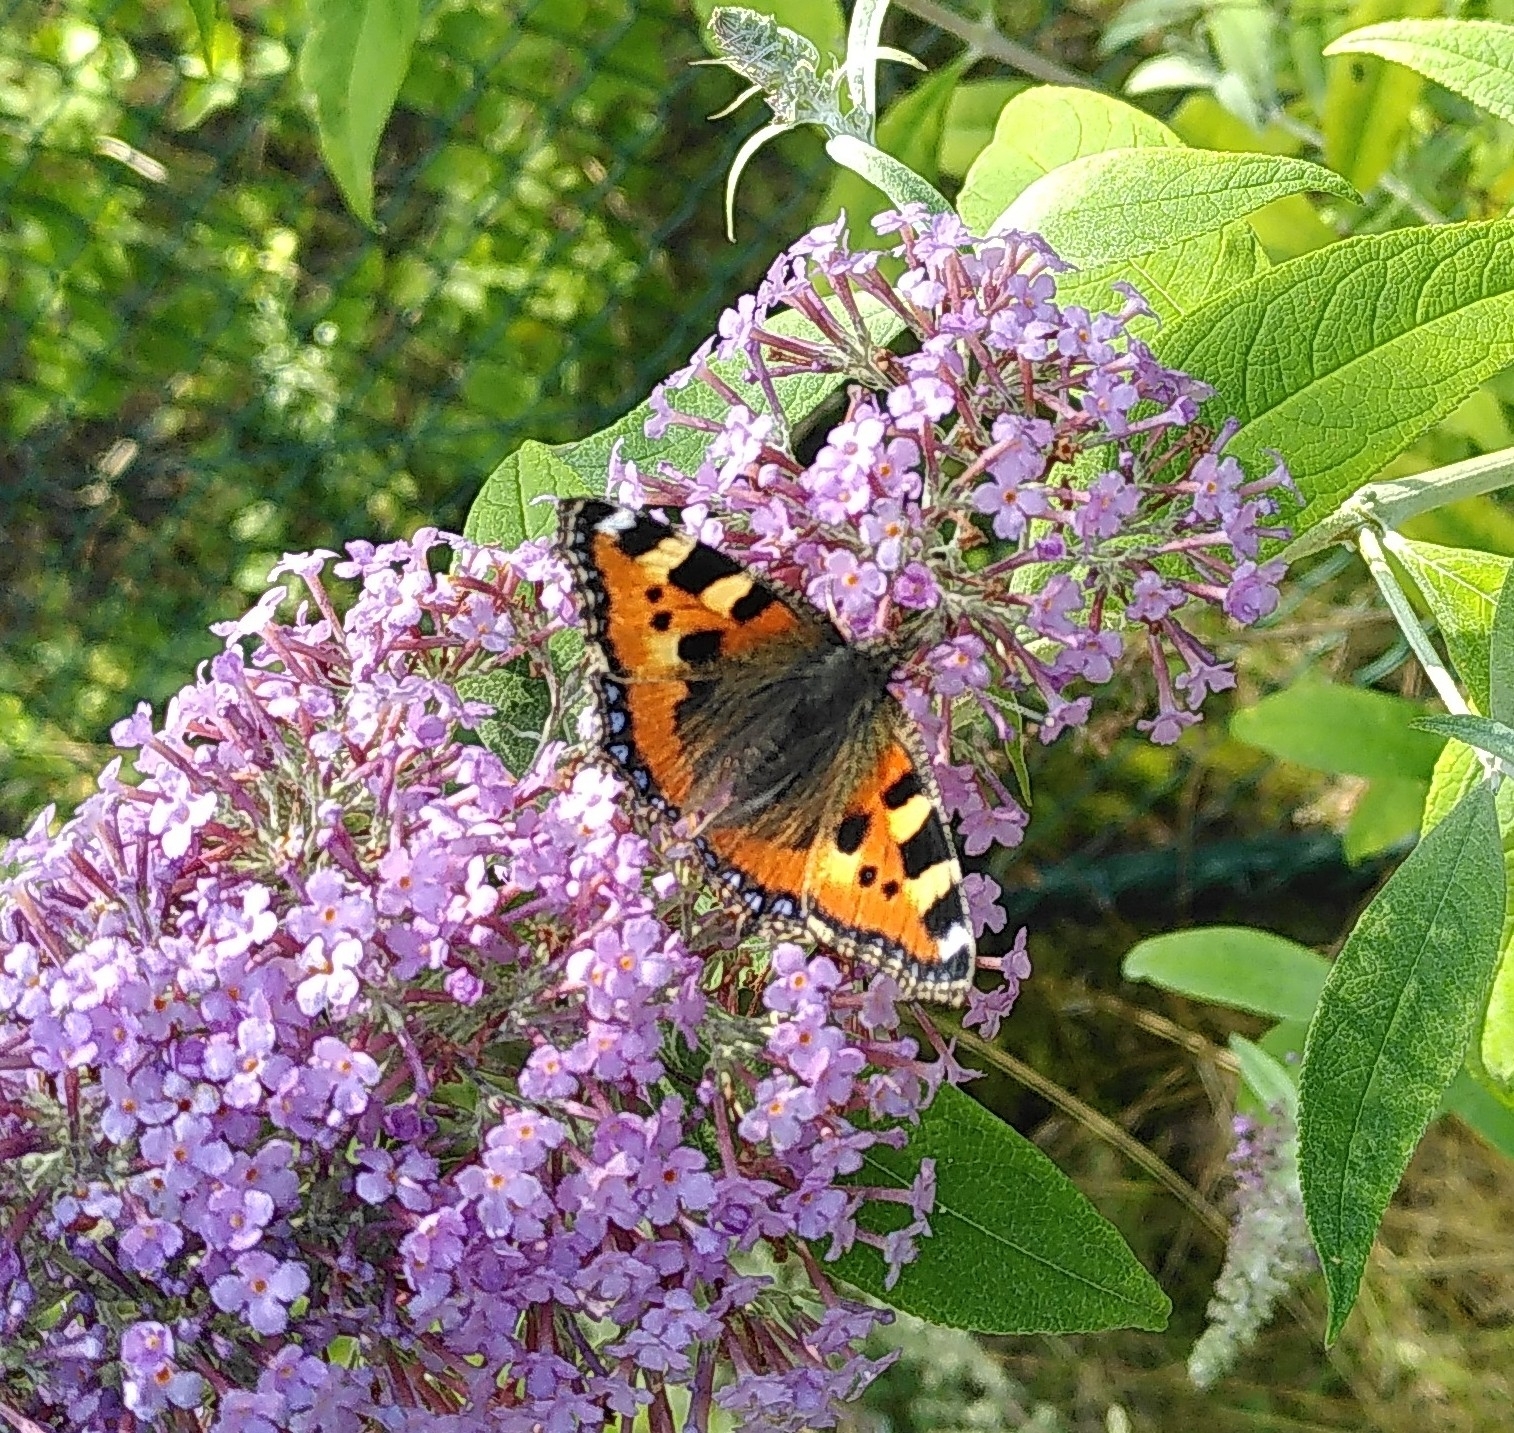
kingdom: Animalia
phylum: Arthropoda
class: Insecta
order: Lepidoptera
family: Nymphalidae
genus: Aglais
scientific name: Aglais urticae
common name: Small tortoiseshell
